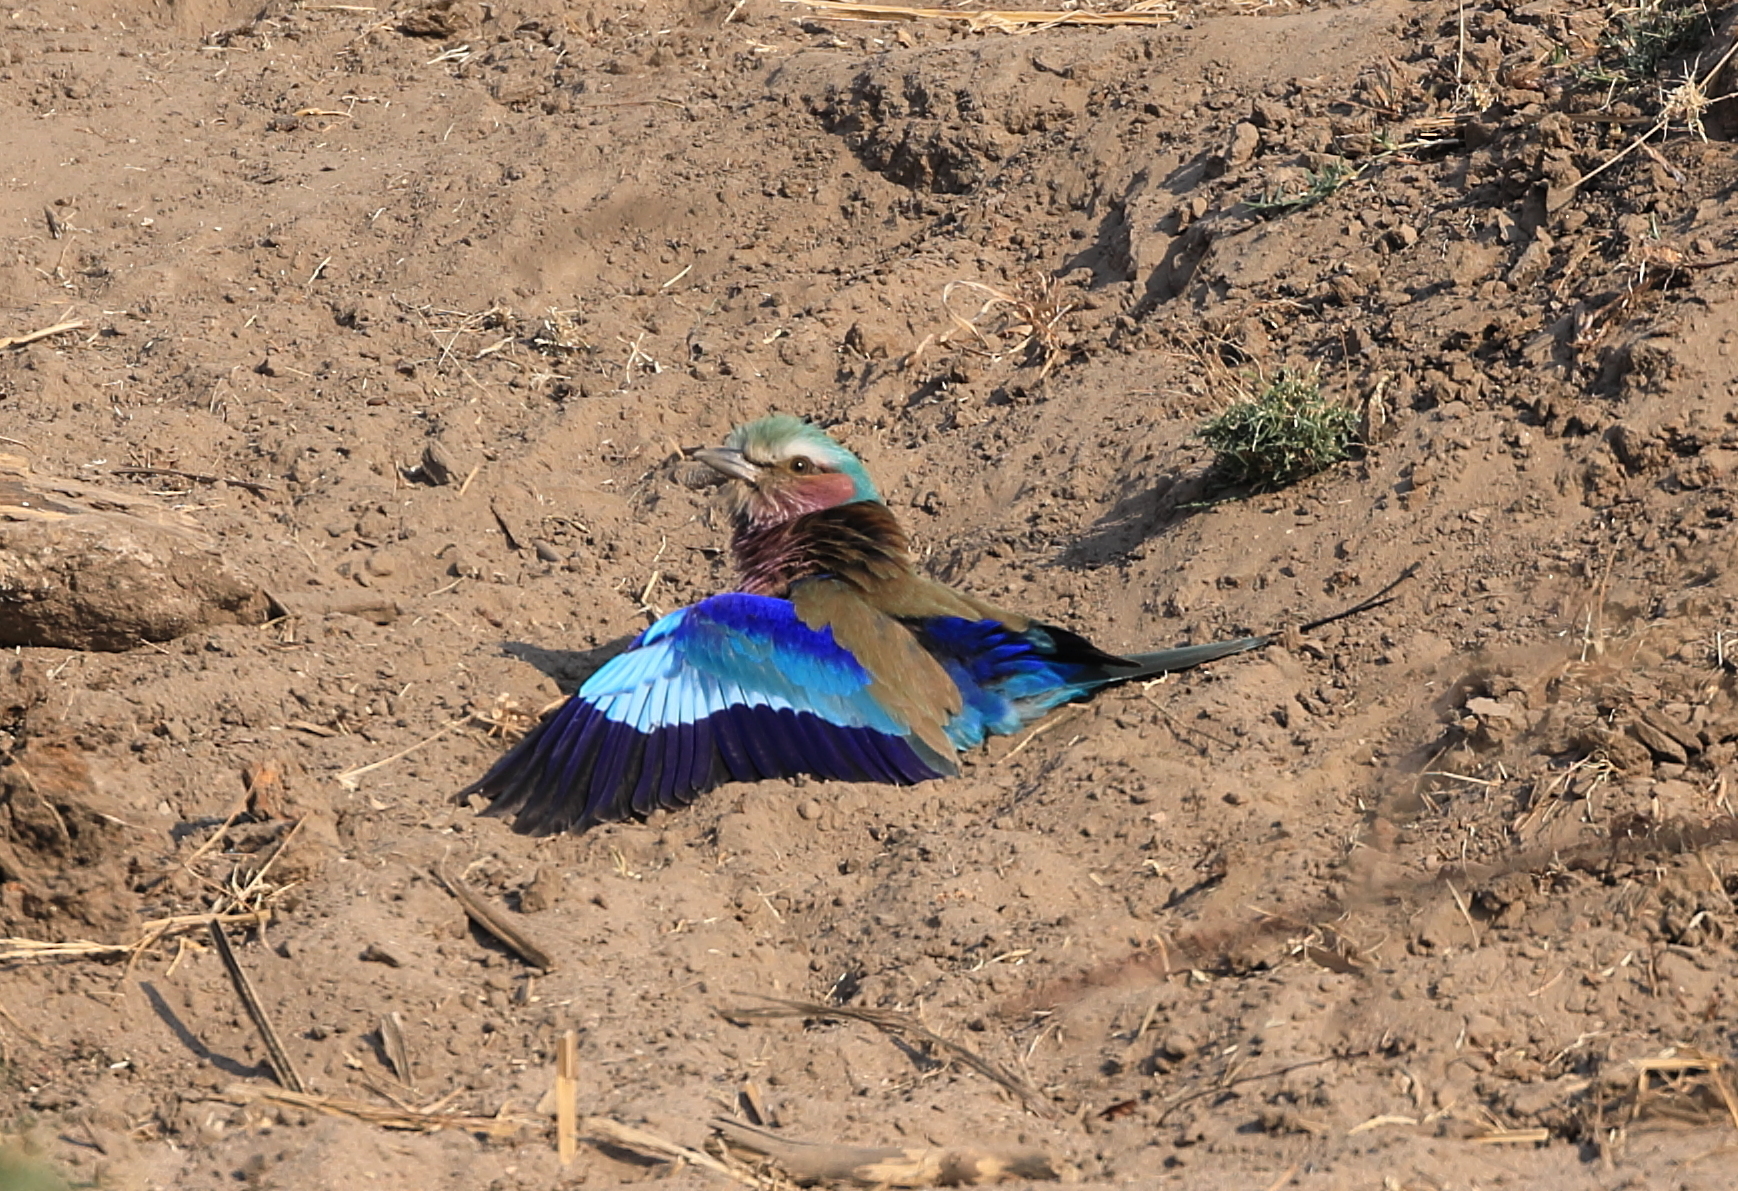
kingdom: Animalia
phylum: Chordata
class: Aves
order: Coraciiformes
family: Coraciidae
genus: Coracias
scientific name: Coracias caudatus
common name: Lilac-breasted roller
